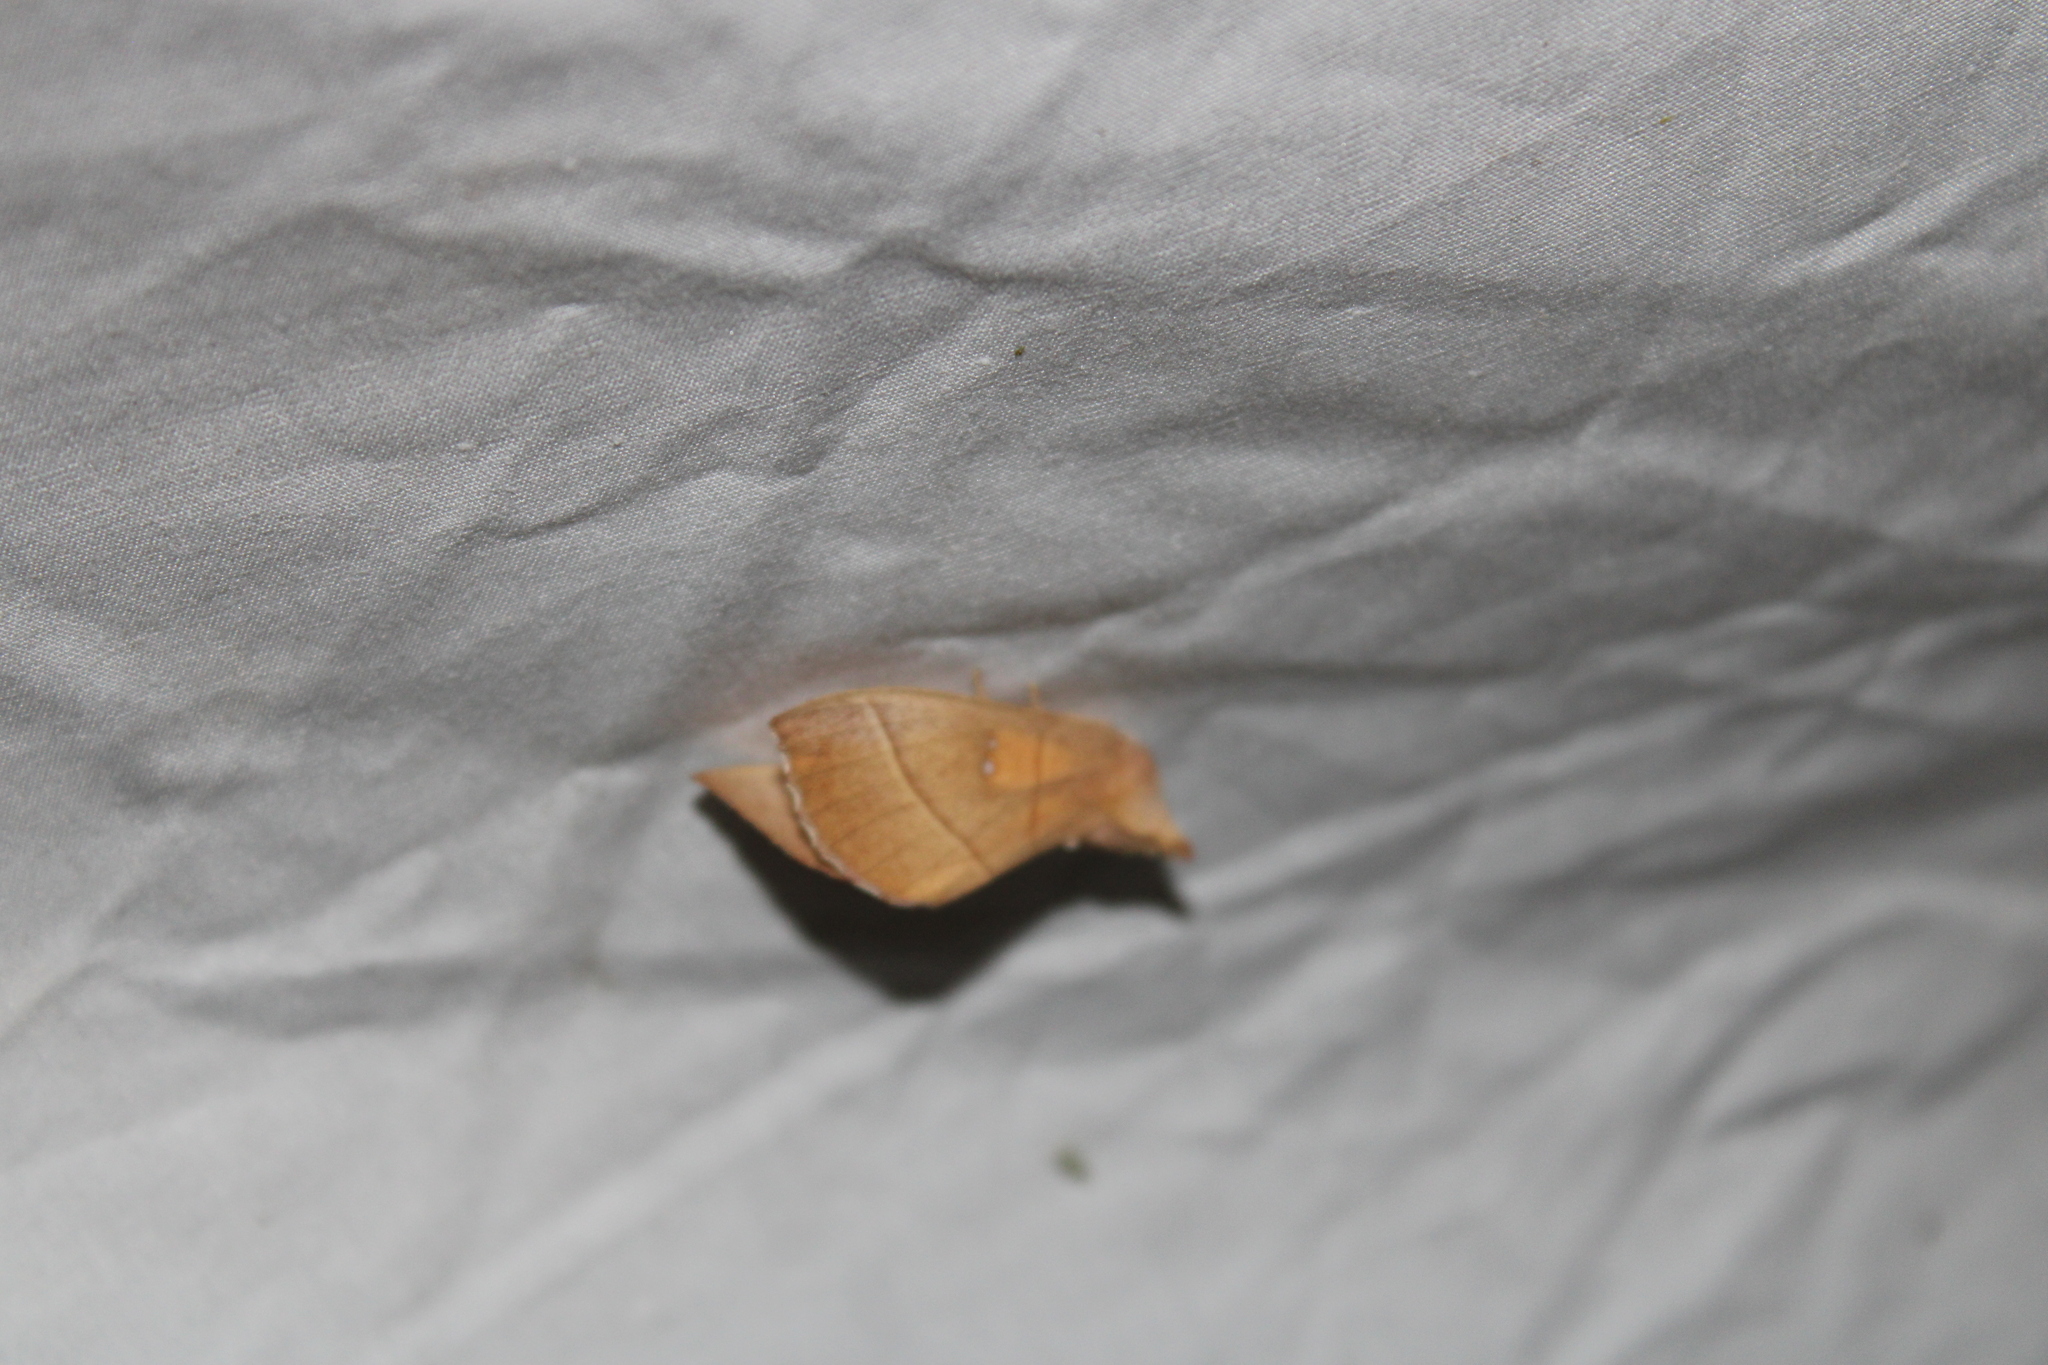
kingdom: Animalia
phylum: Arthropoda
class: Insecta
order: Lepidoptera
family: Notodontidae
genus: Nadata
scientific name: Nadata gibbosa
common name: White-dotted prominent
